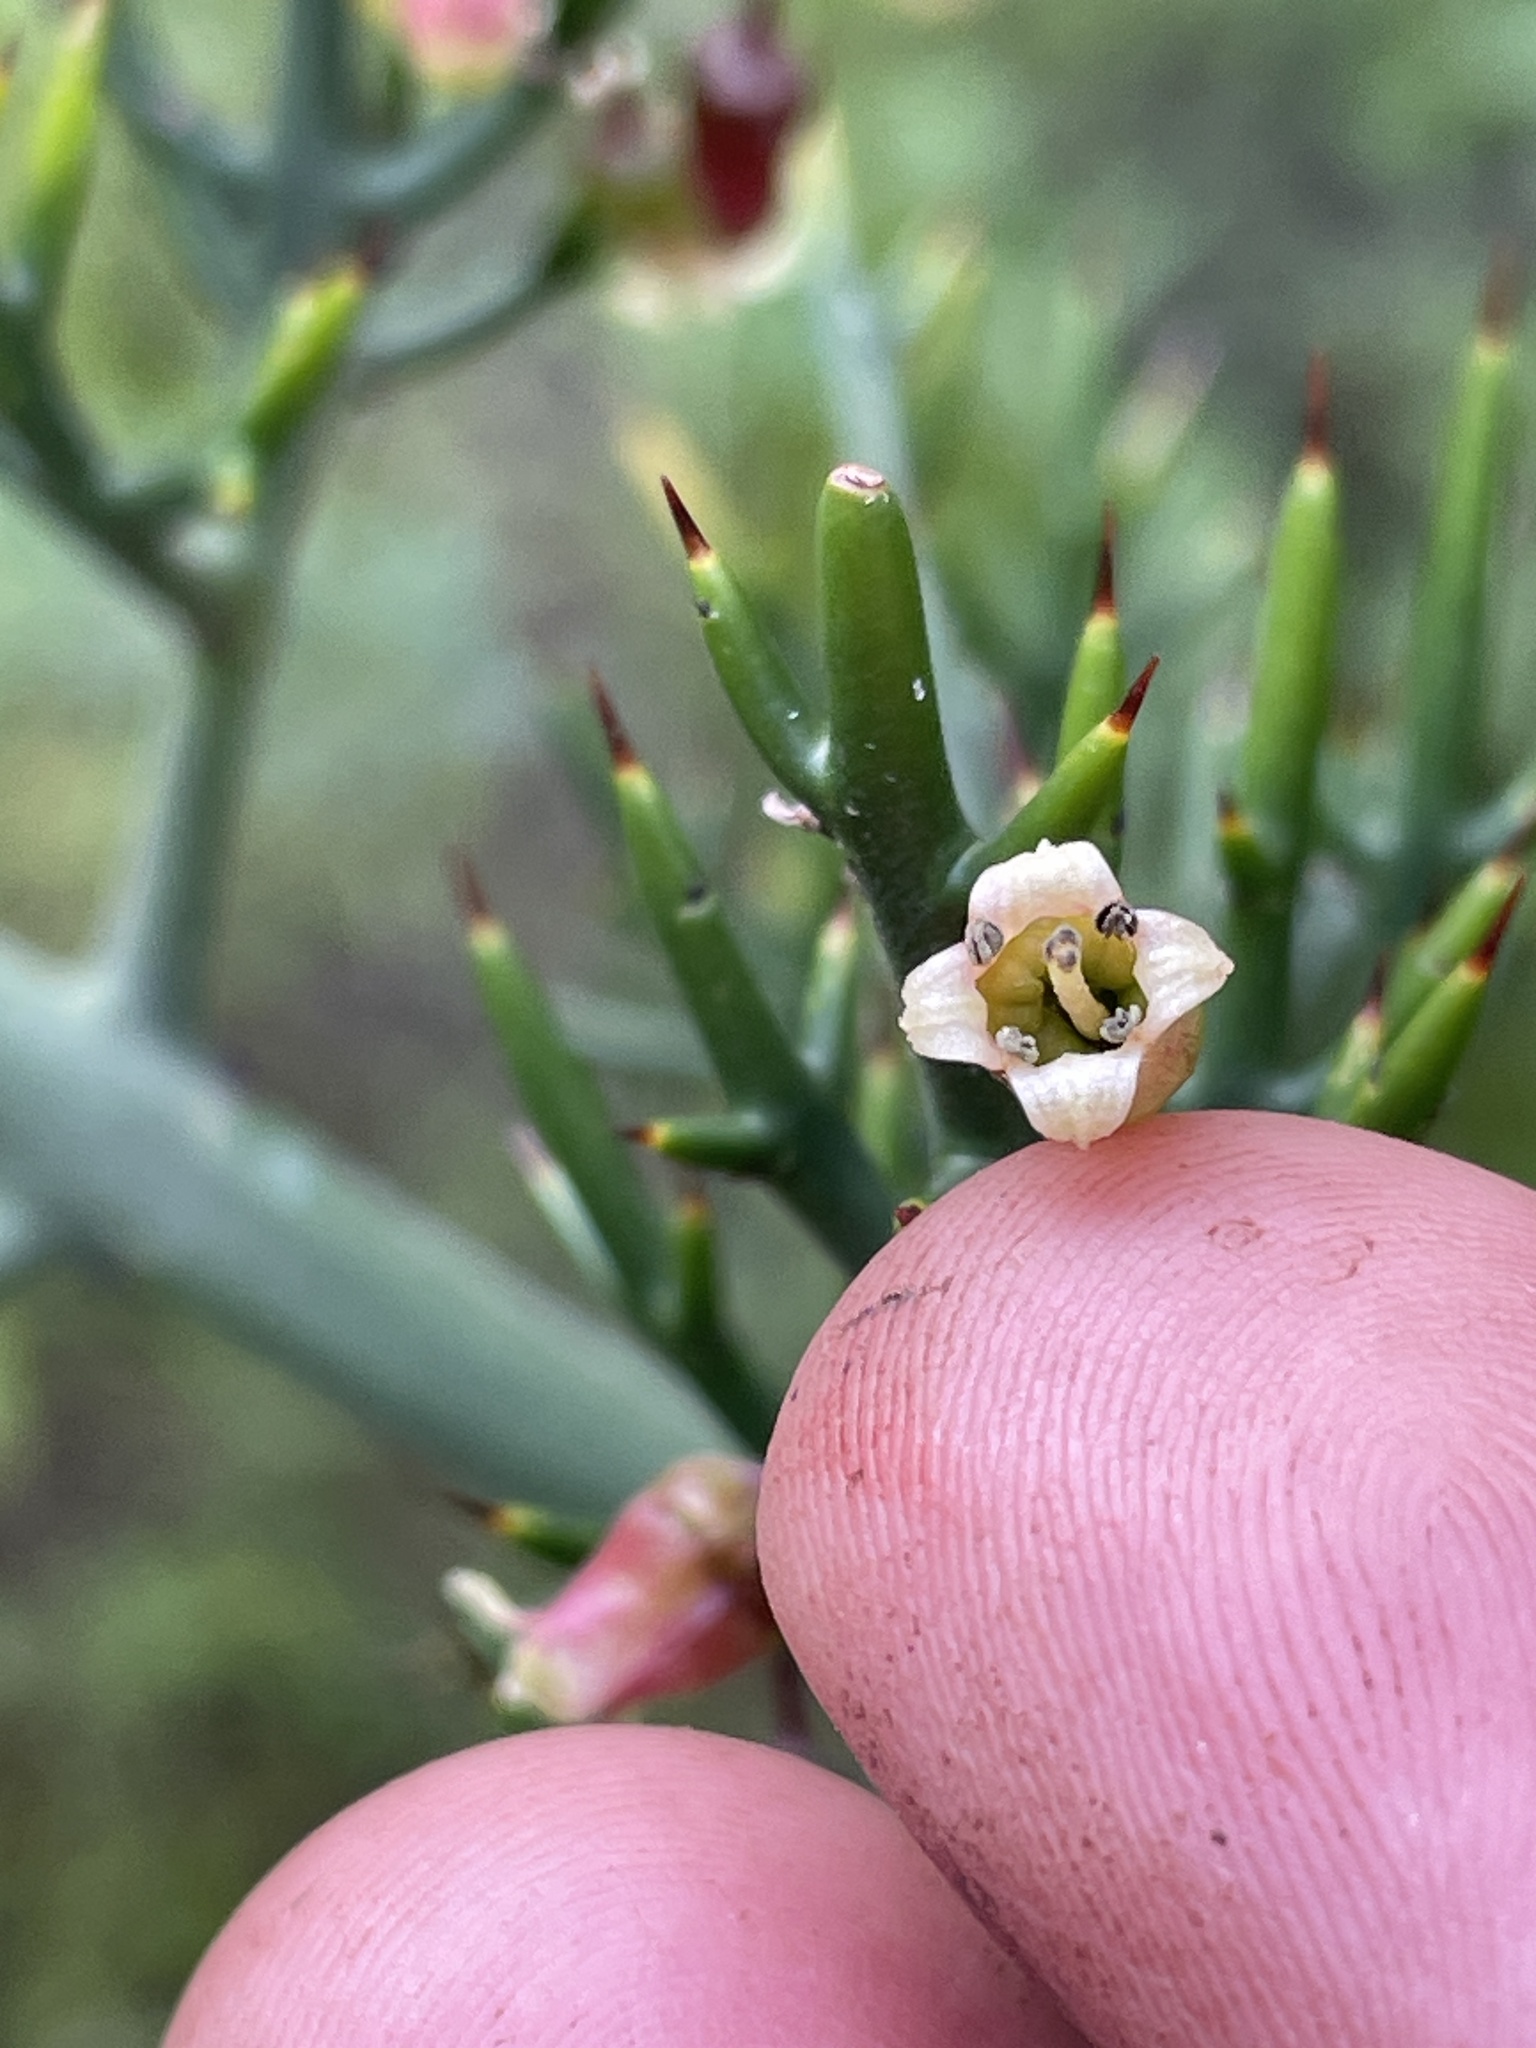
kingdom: Plantae
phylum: Tracheophyta
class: Magnoliopsida
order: Rosales
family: Rhamnaceae
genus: Colletia
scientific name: Colletia spinosissima
